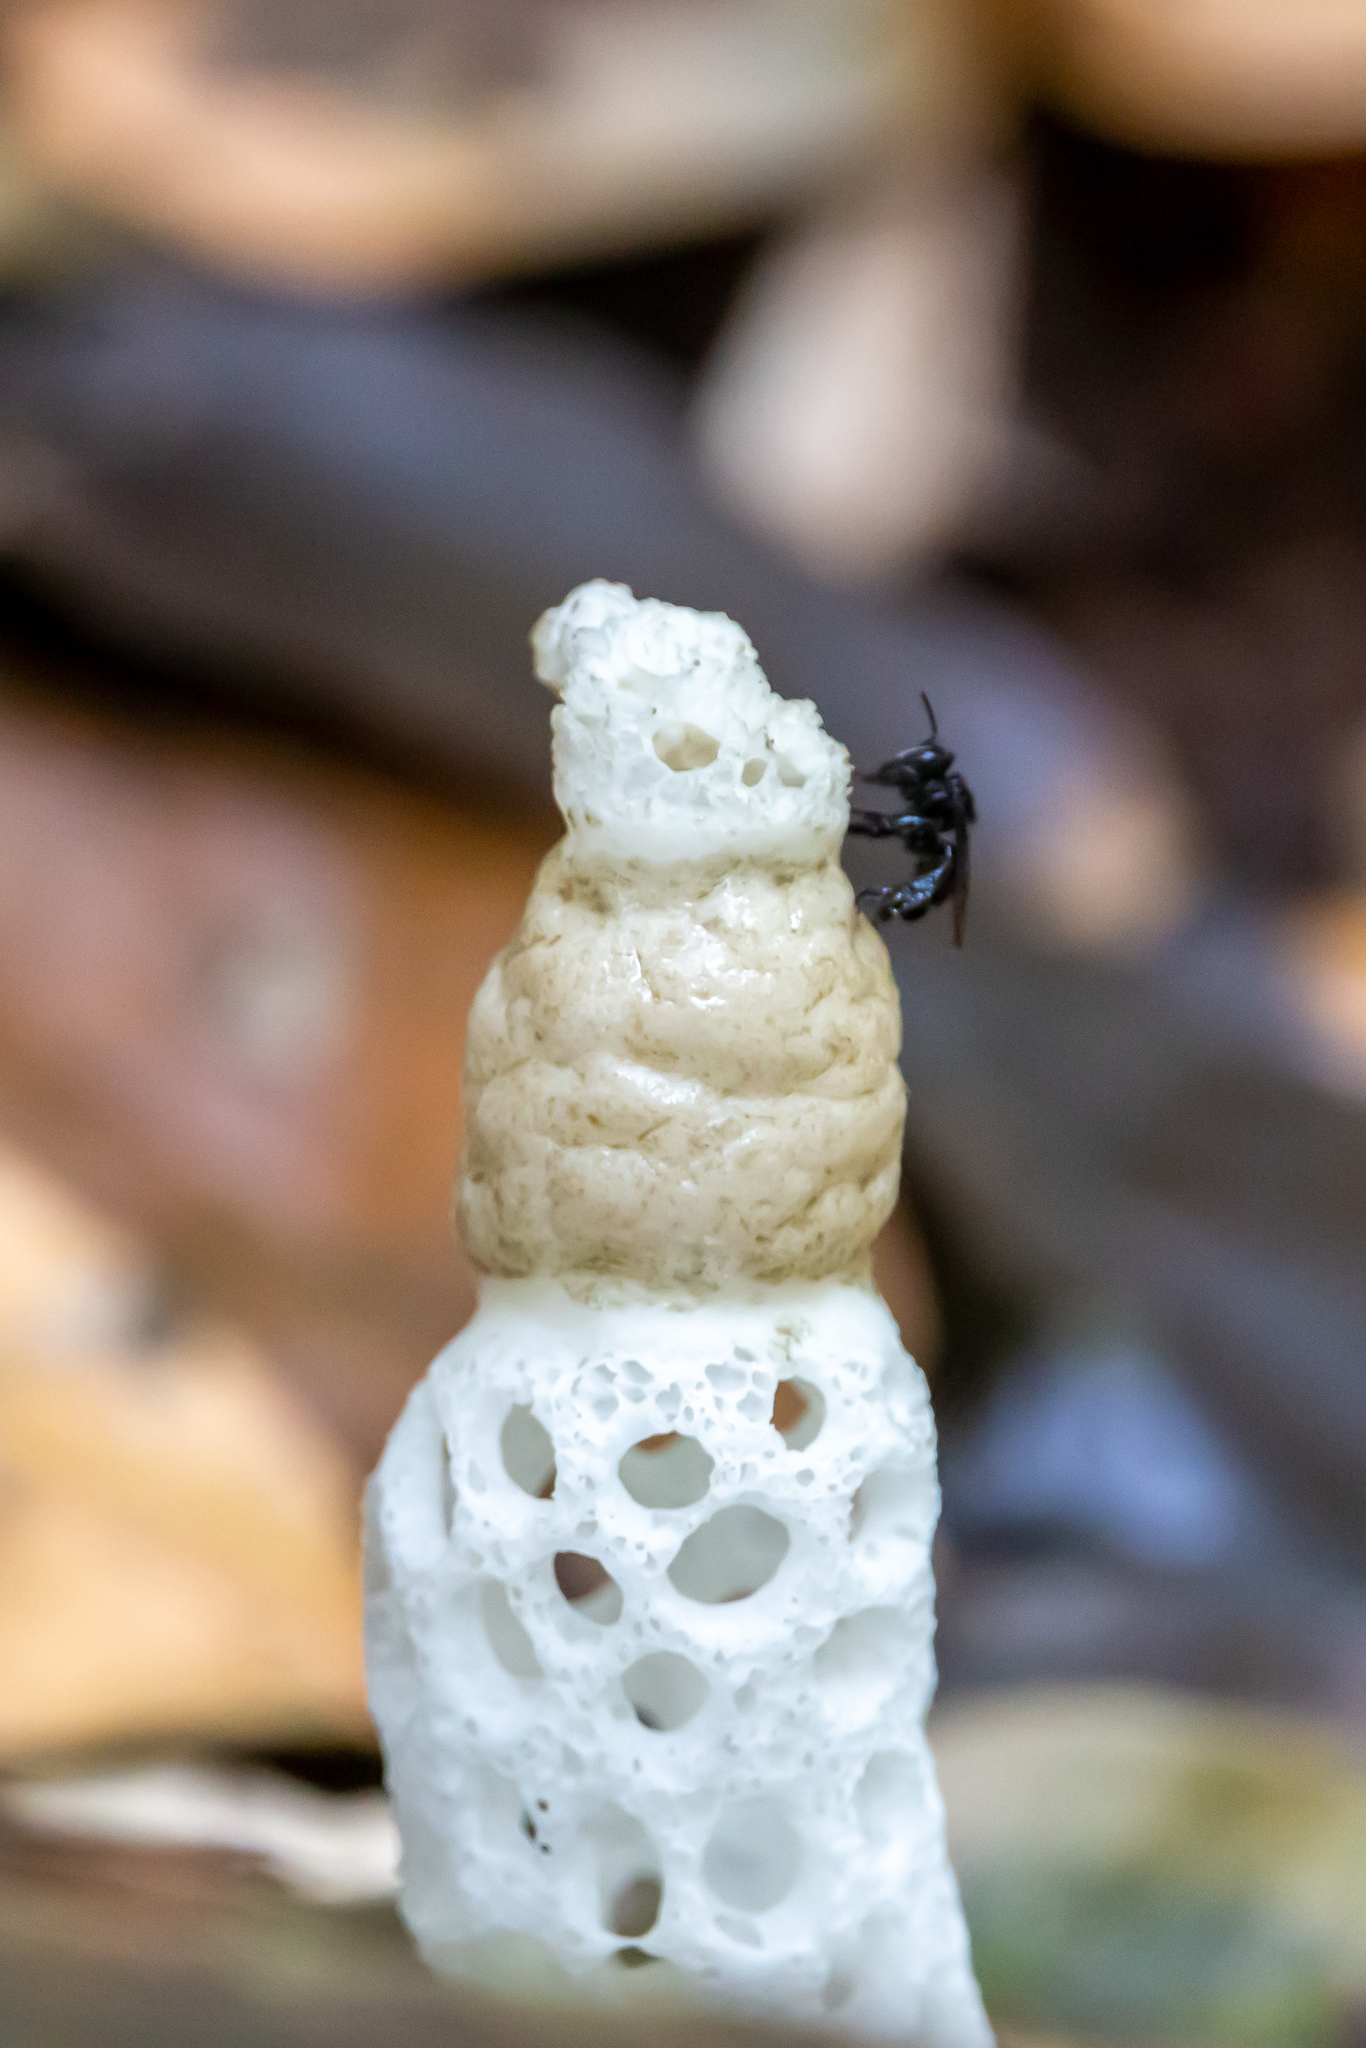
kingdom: Fungi
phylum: Basidiomycota
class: Agaricomycetes
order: Phallales
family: Phallaceae
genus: Staheliomyces
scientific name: Staheliomyces cinctus
